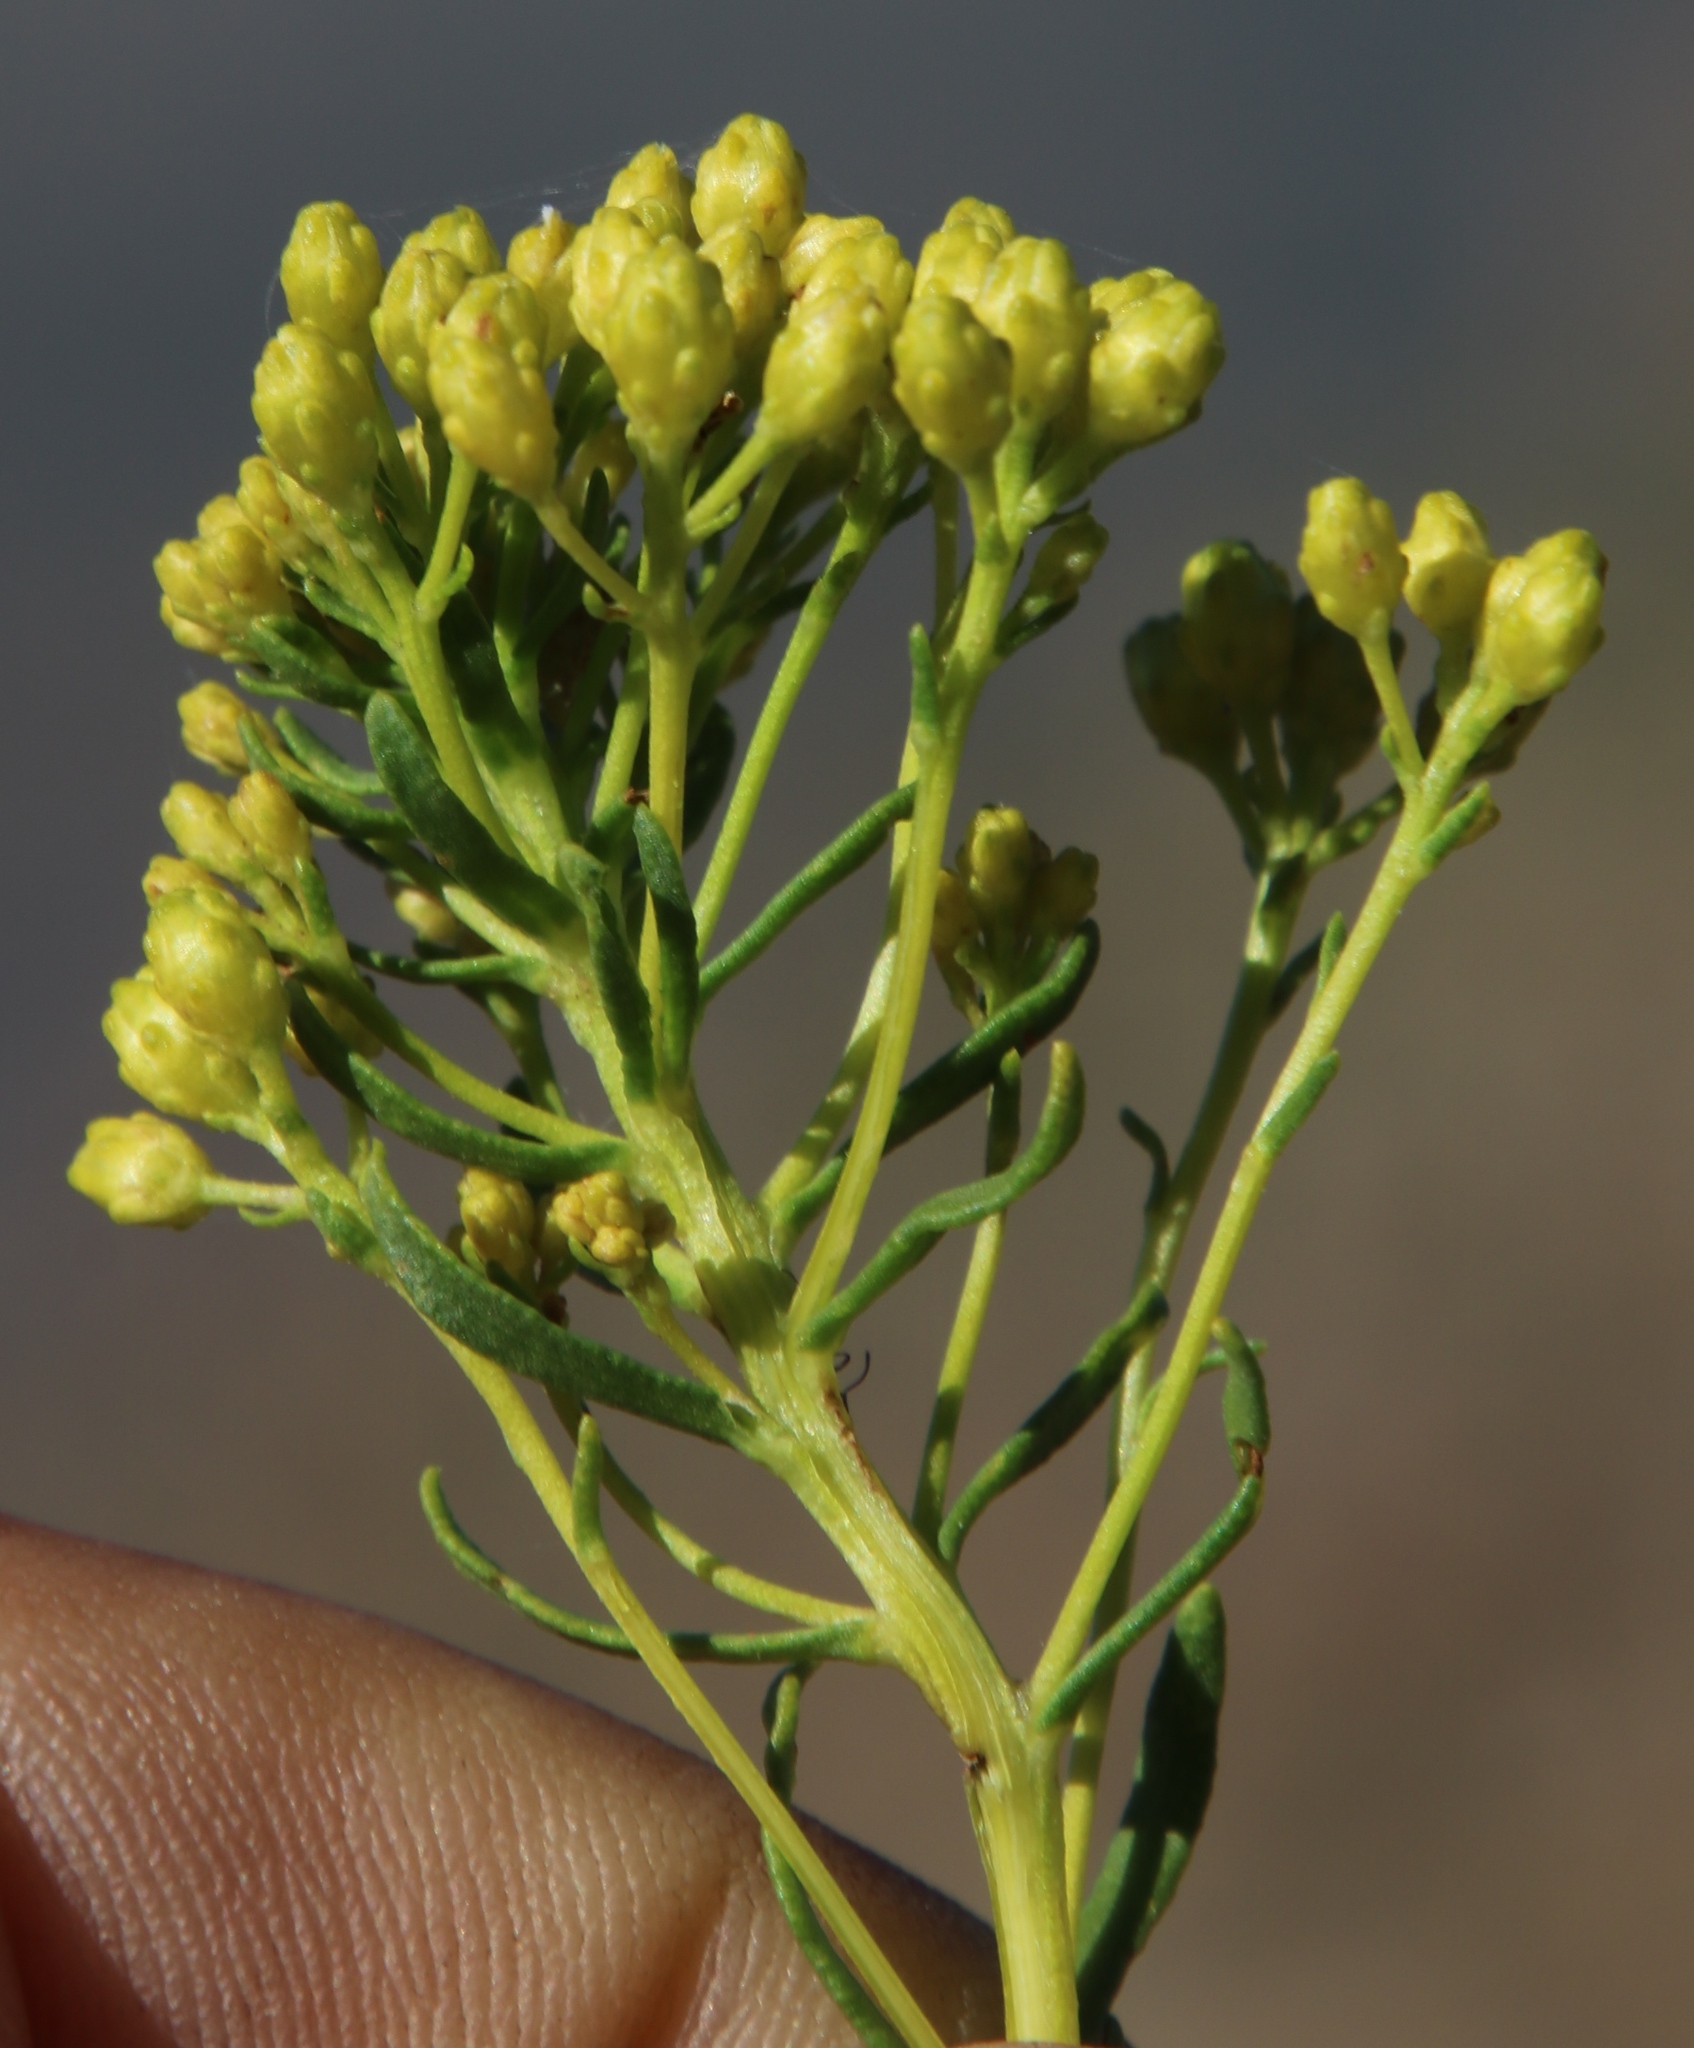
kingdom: Plantae
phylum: Tracheophyta
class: Magnoliopsida
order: Asterales
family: Asteraceae
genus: Athanasia
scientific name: Athanasia flexuosa
